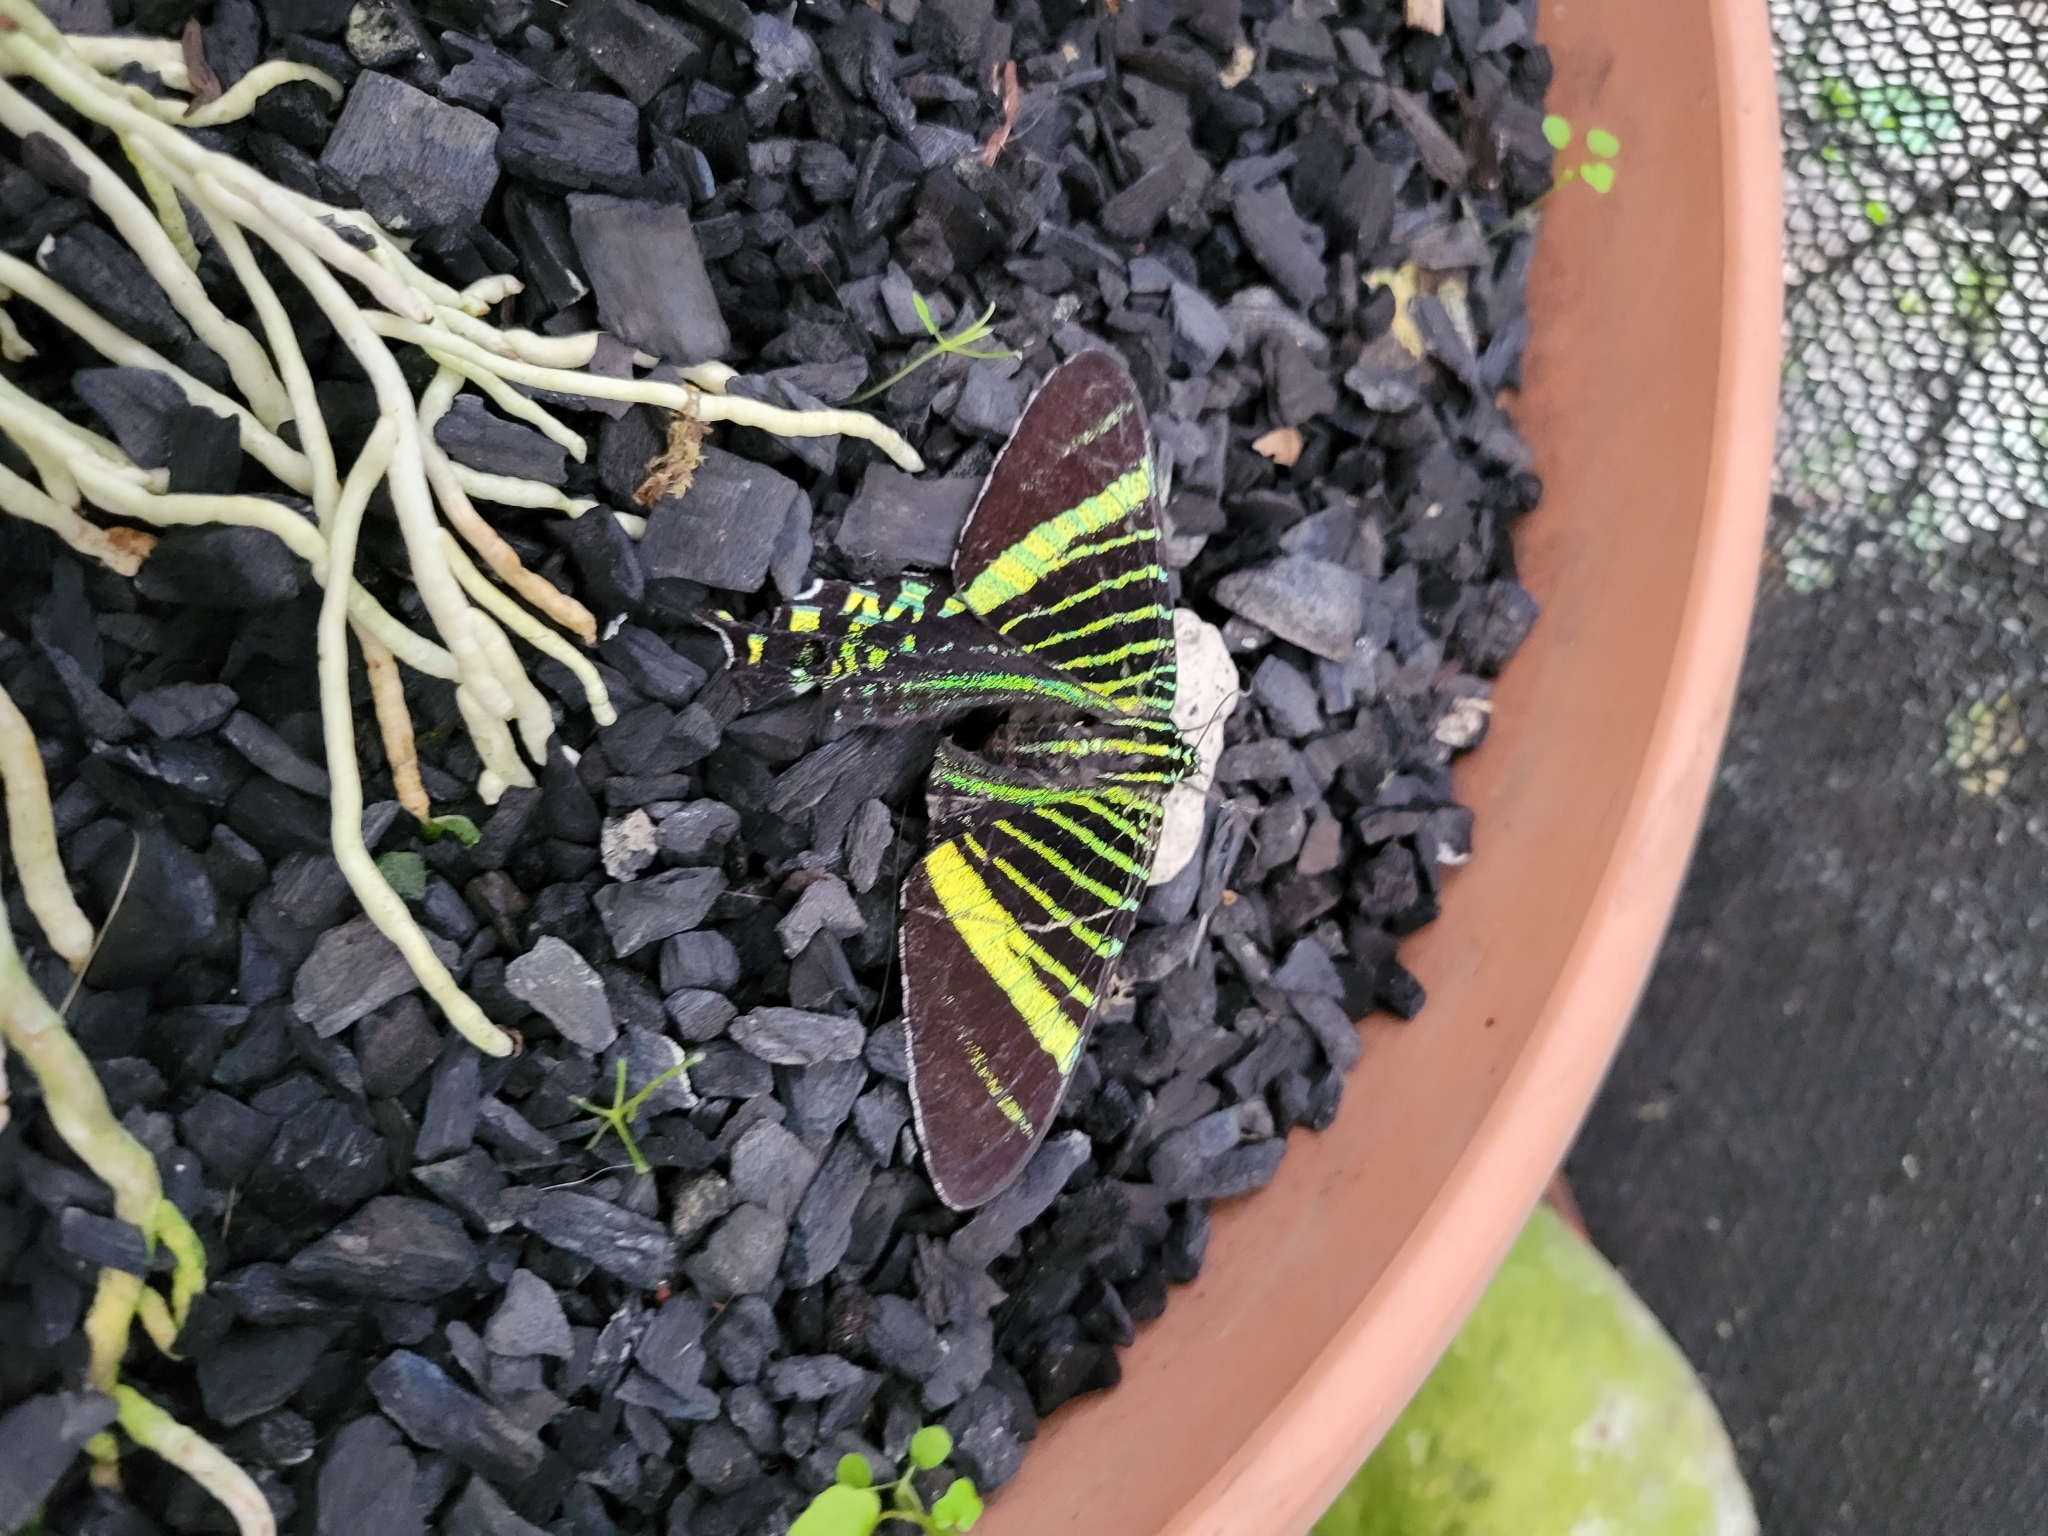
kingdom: Animalia
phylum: Arthropoda
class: Insecta
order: Lepidoptera
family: Uraniidae
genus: Urania
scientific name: Urania fulgens
